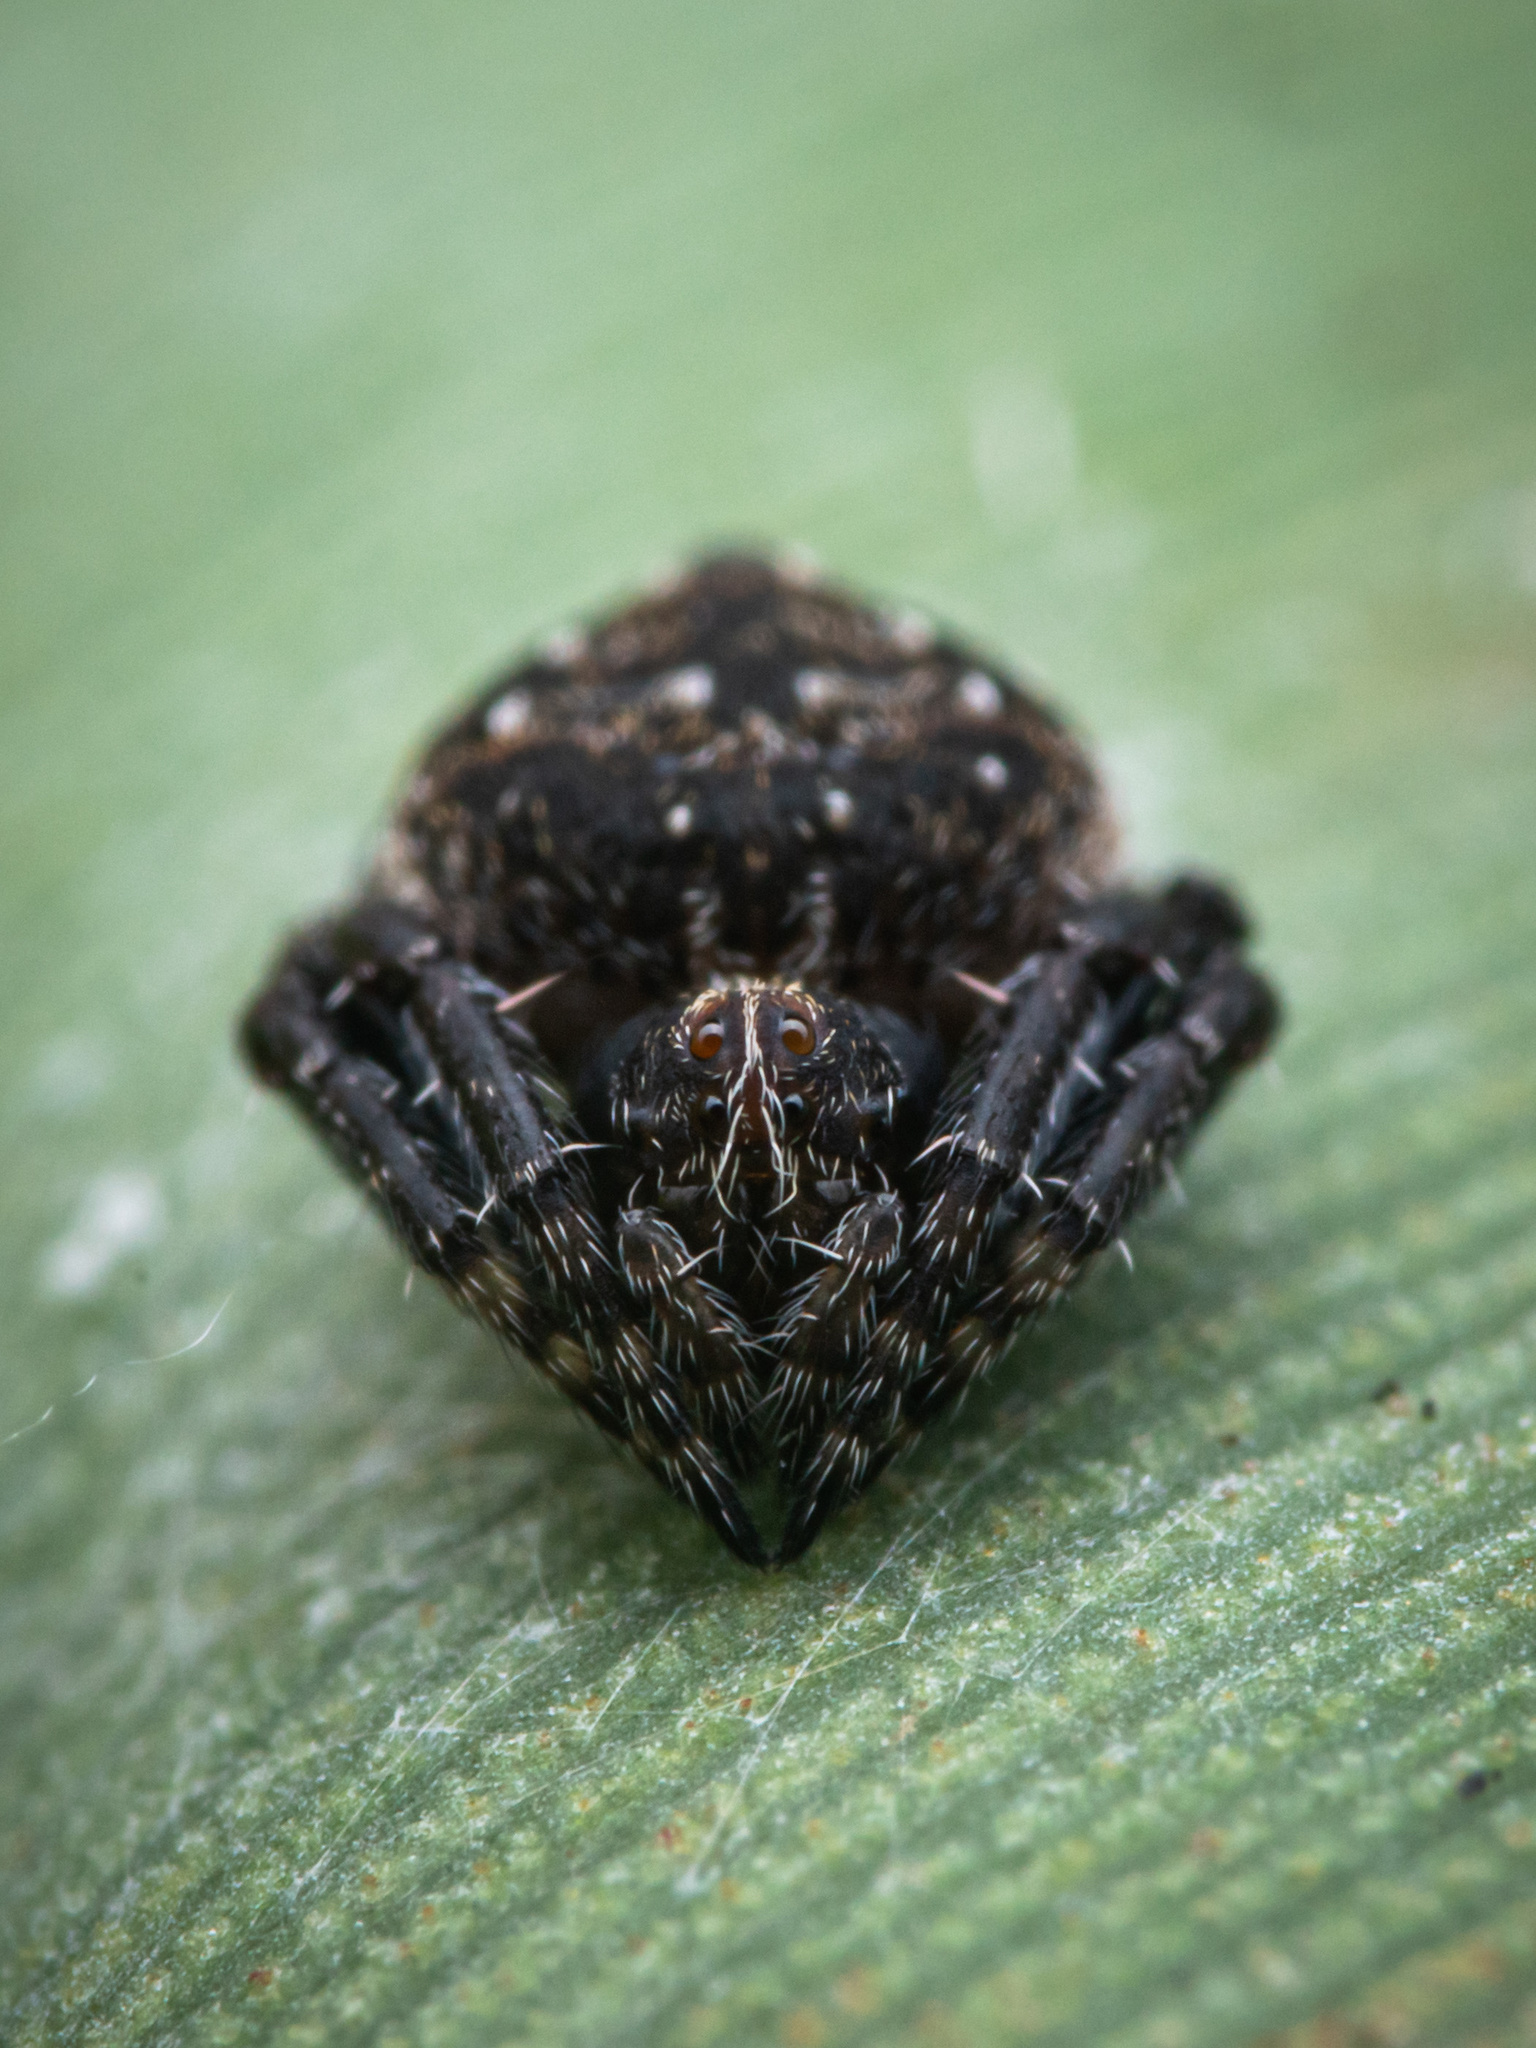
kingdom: Animalia
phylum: Arthropoda
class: Arachnida
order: Araneae
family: Araneidae
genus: Eriovixia
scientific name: Eriovixia excelsa
